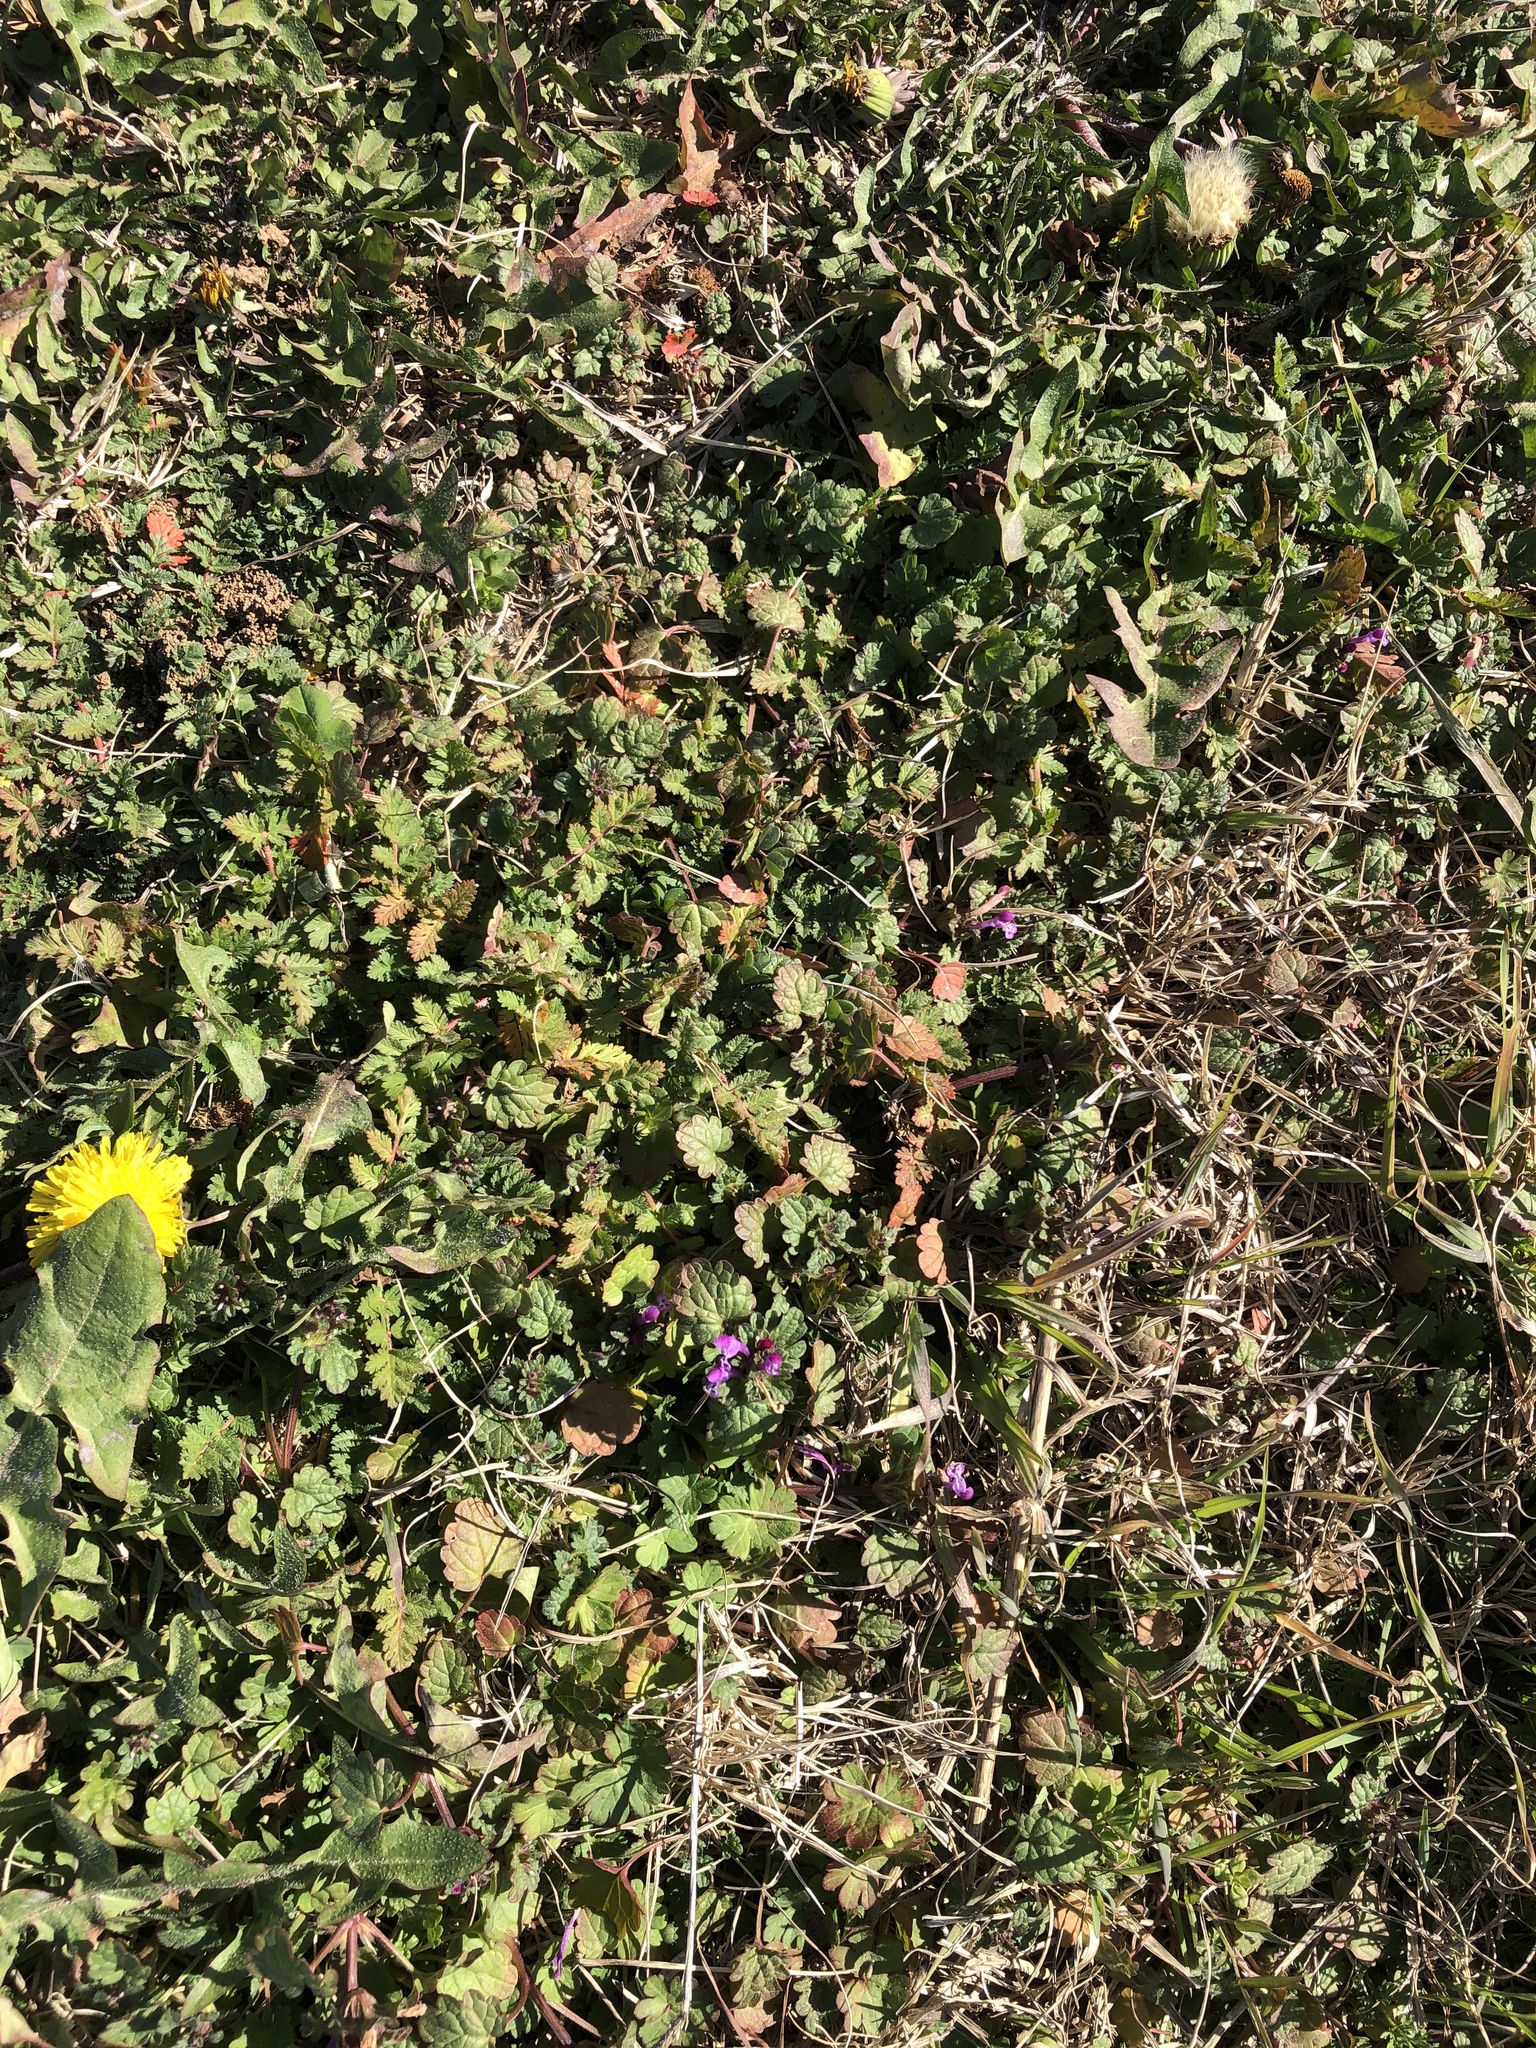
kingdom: Plantae
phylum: Tracheophyta
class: Magnoliopsida
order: Lamiales
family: Lamiaceae
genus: Lamium
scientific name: Lamium amplexicaule
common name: Henbit dead-nettle
